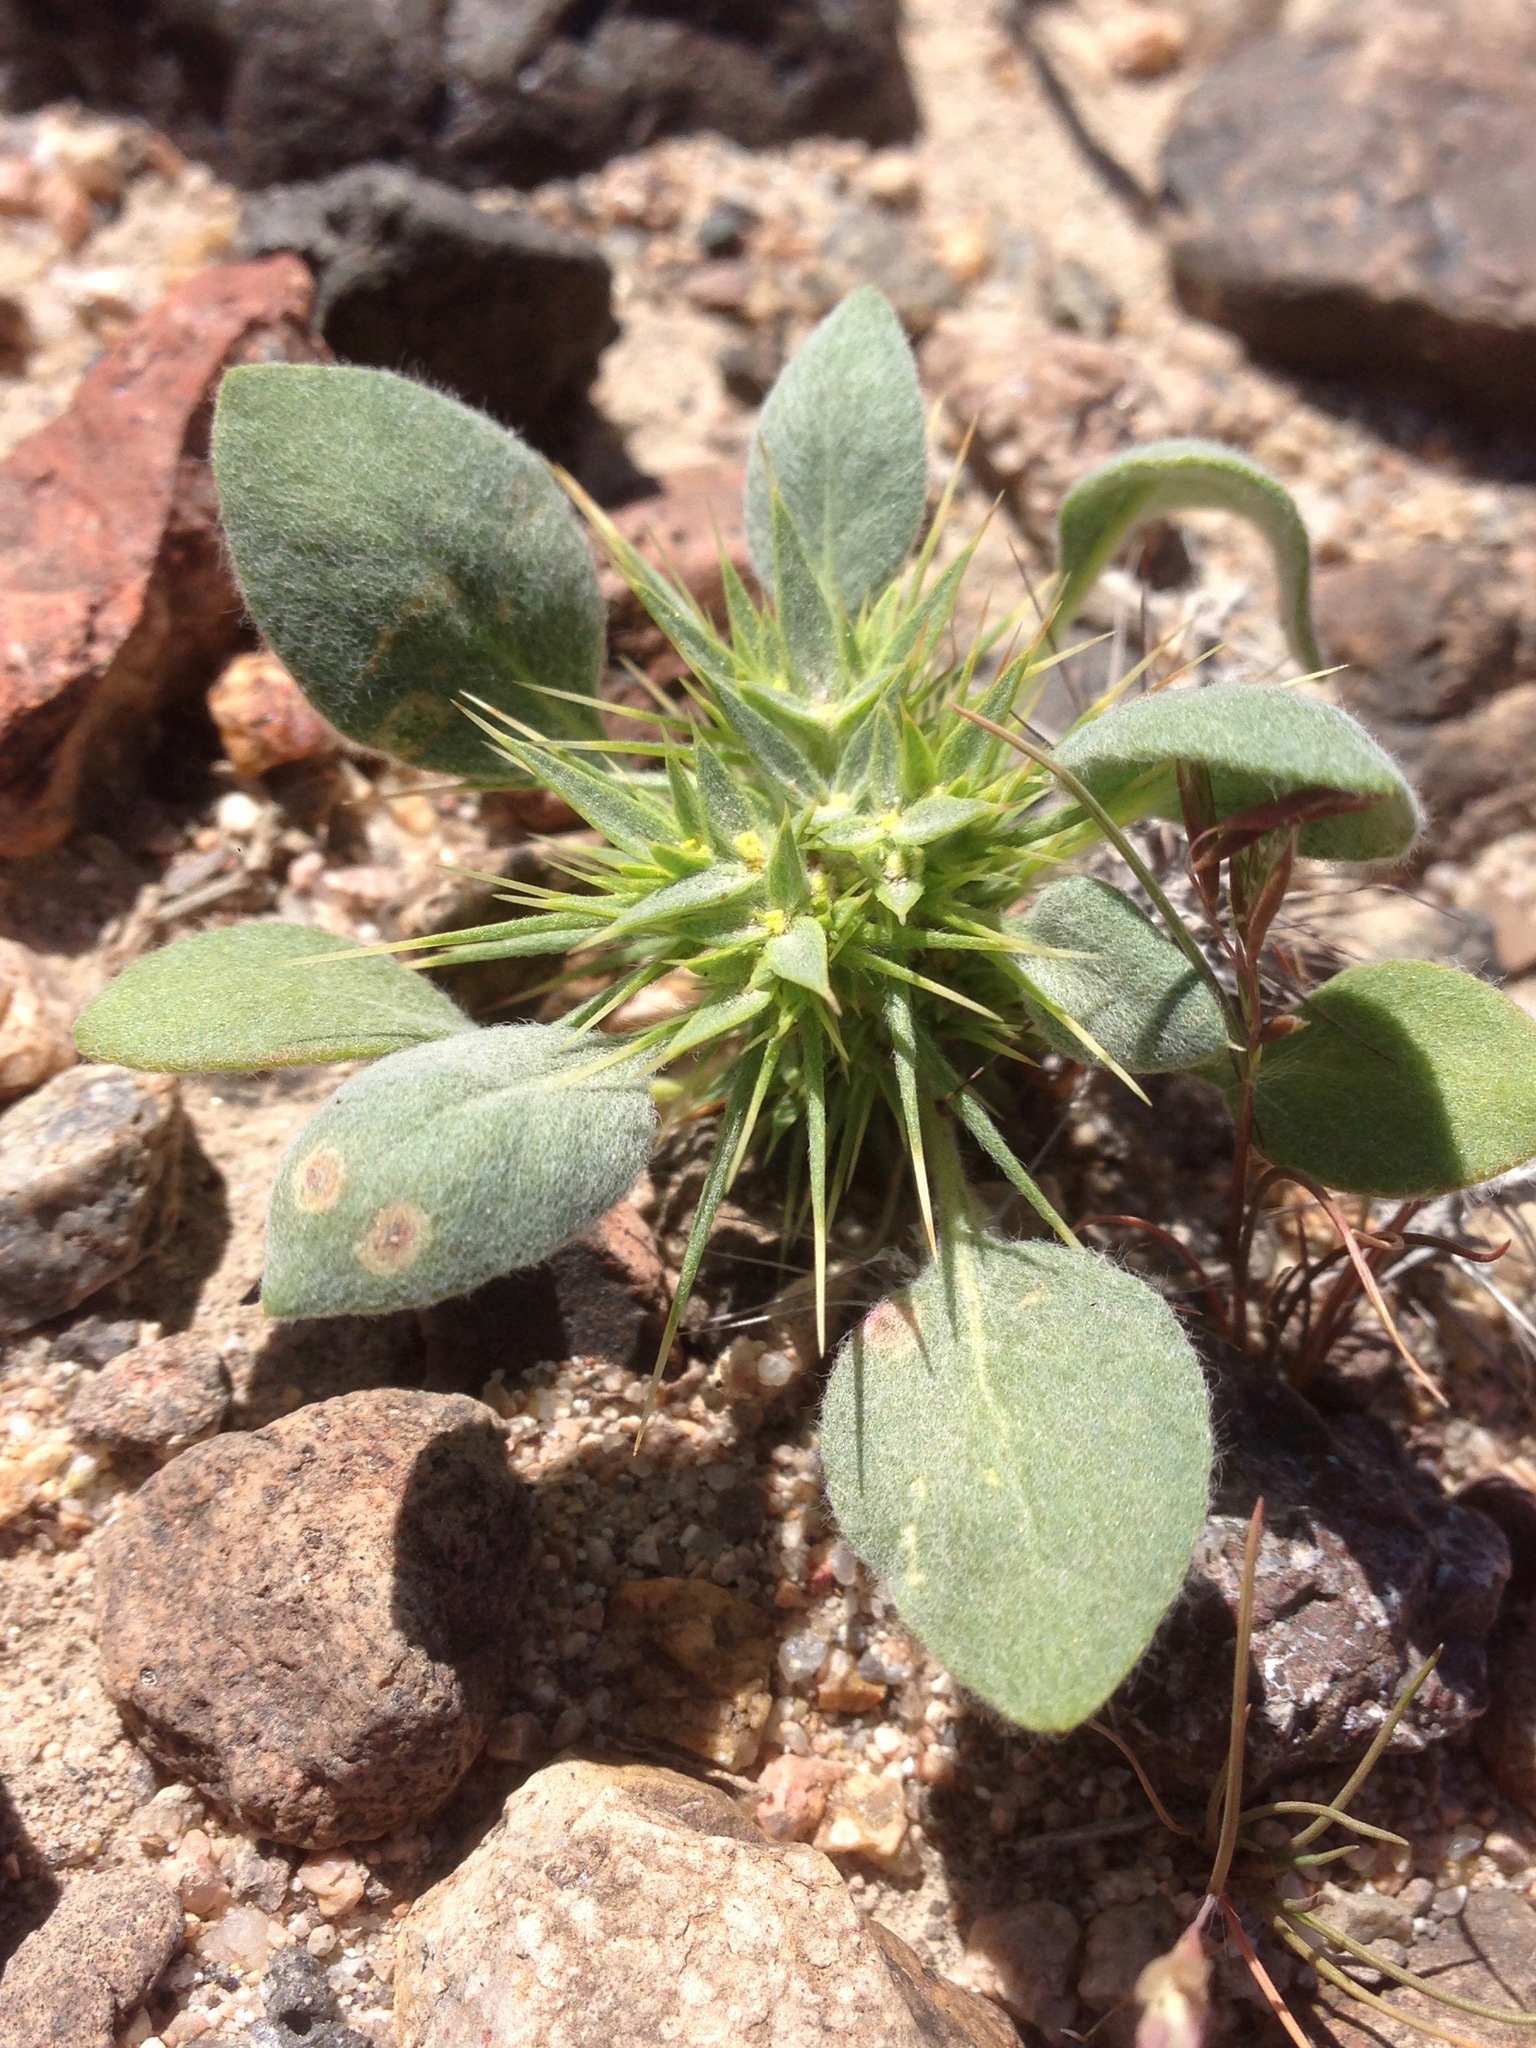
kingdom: Plantae
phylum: Tracheophyta
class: Magnoliopsida
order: Caryophyllales
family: Polygonaceae
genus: Chorizanthe
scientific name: Chorizanthe rigida
